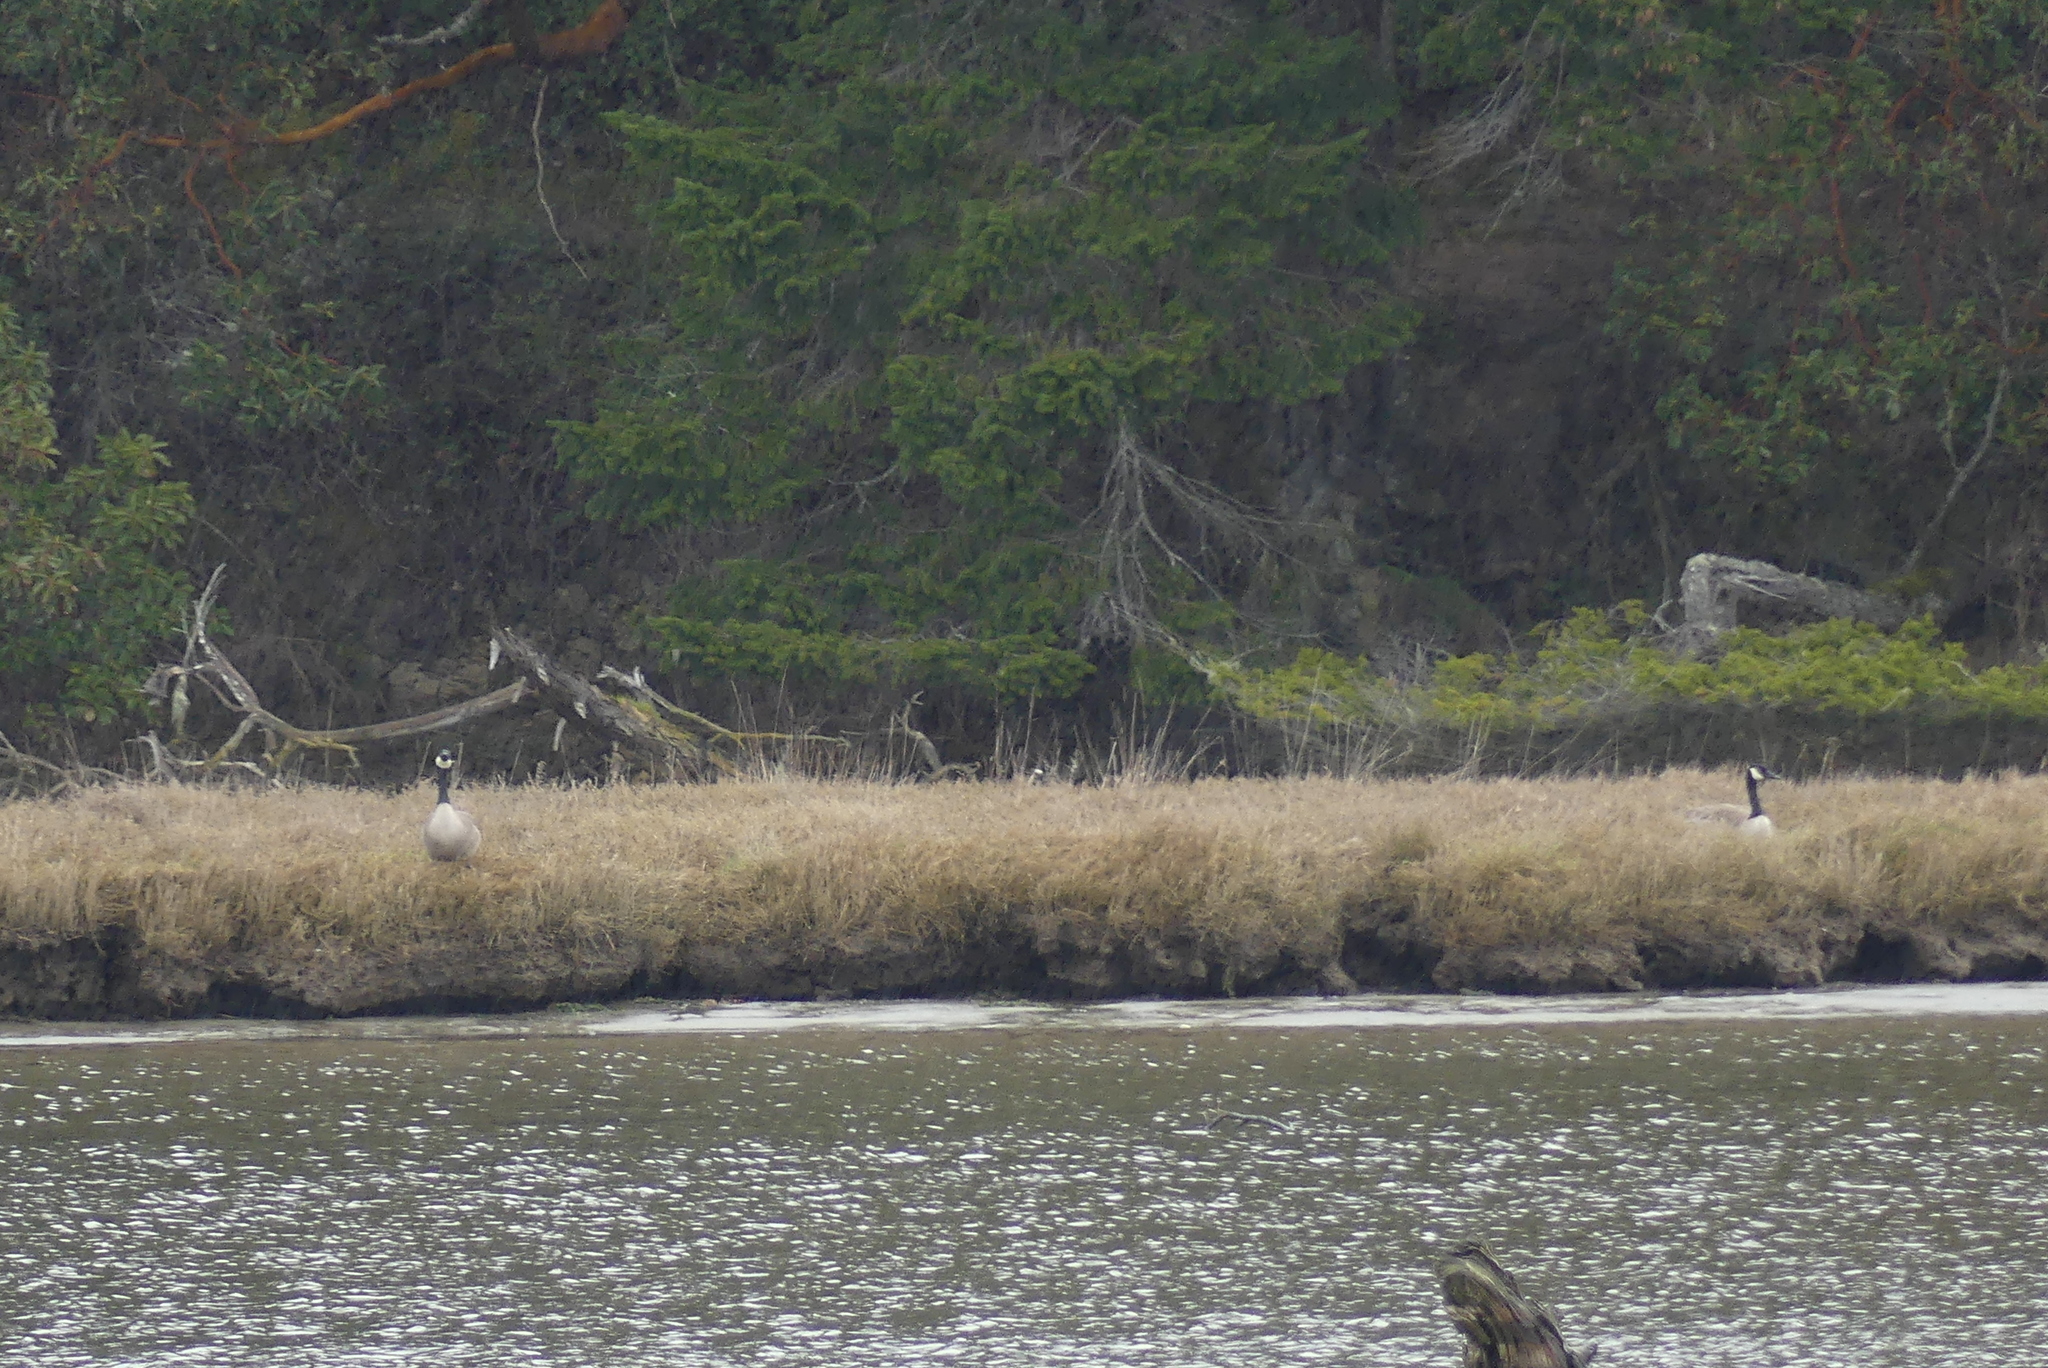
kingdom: Animalia
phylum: Chordata
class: Aves
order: Anseriformes
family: Anatidae
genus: Branta
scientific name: Branta canadensis
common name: Canada goose
